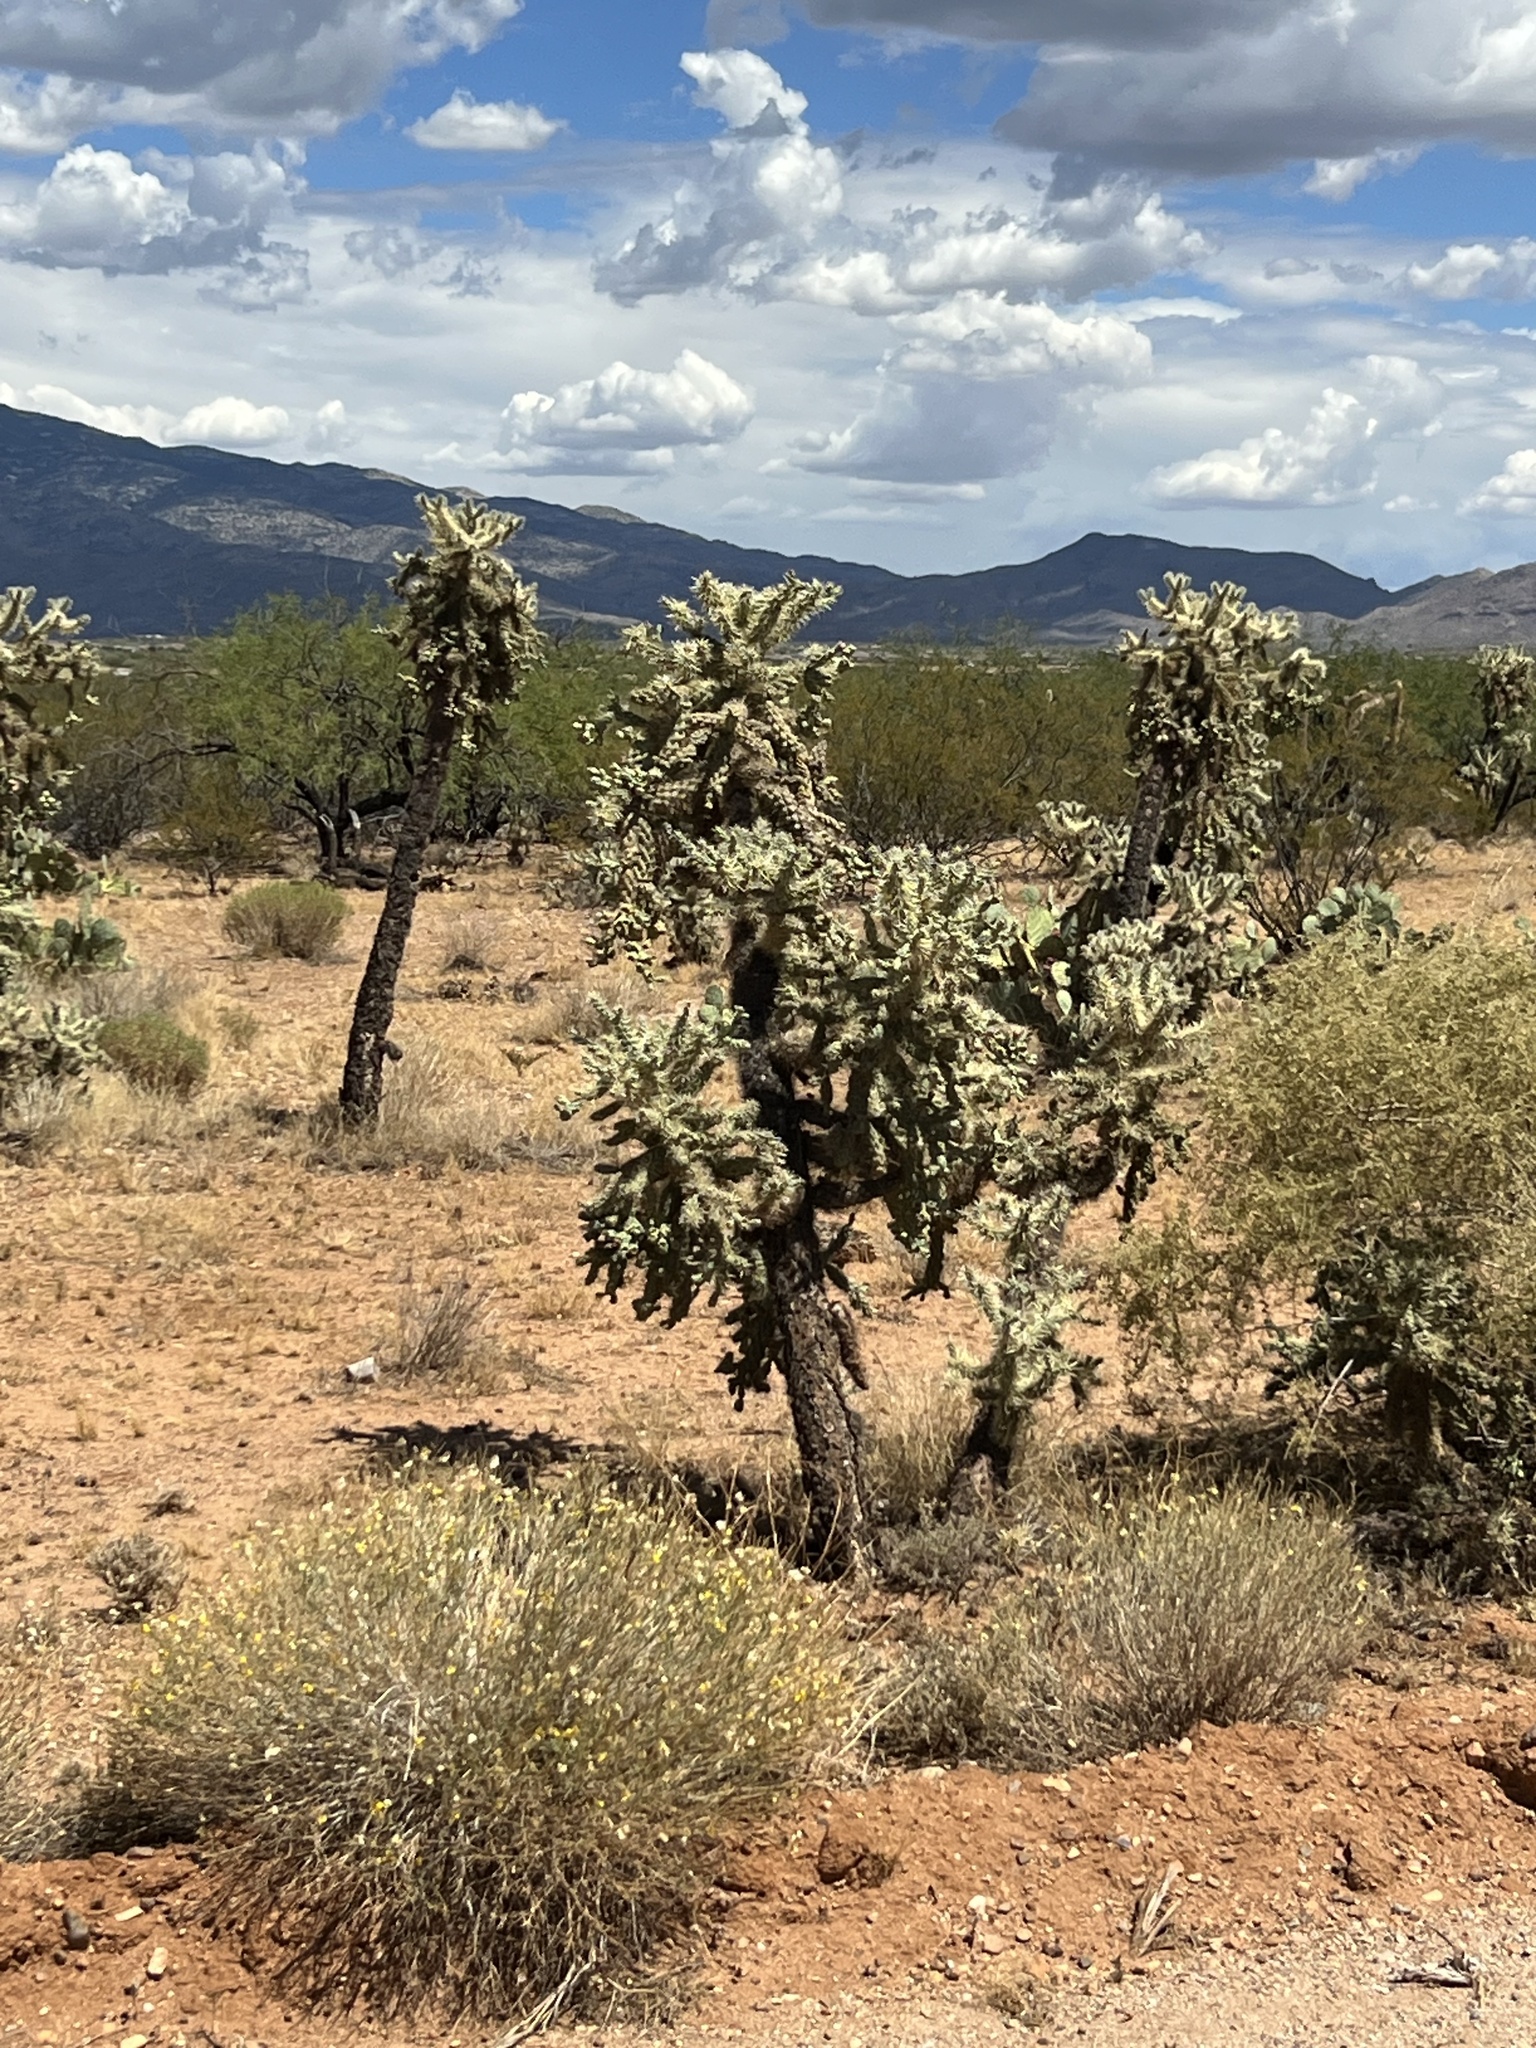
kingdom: Plantae
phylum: Tracheophyta
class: Magnoliopsida
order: Caryophyllales
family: Cactaceae
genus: Cylindropuntia
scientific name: Cylindropuntia fulgida
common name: Jumping cholla
